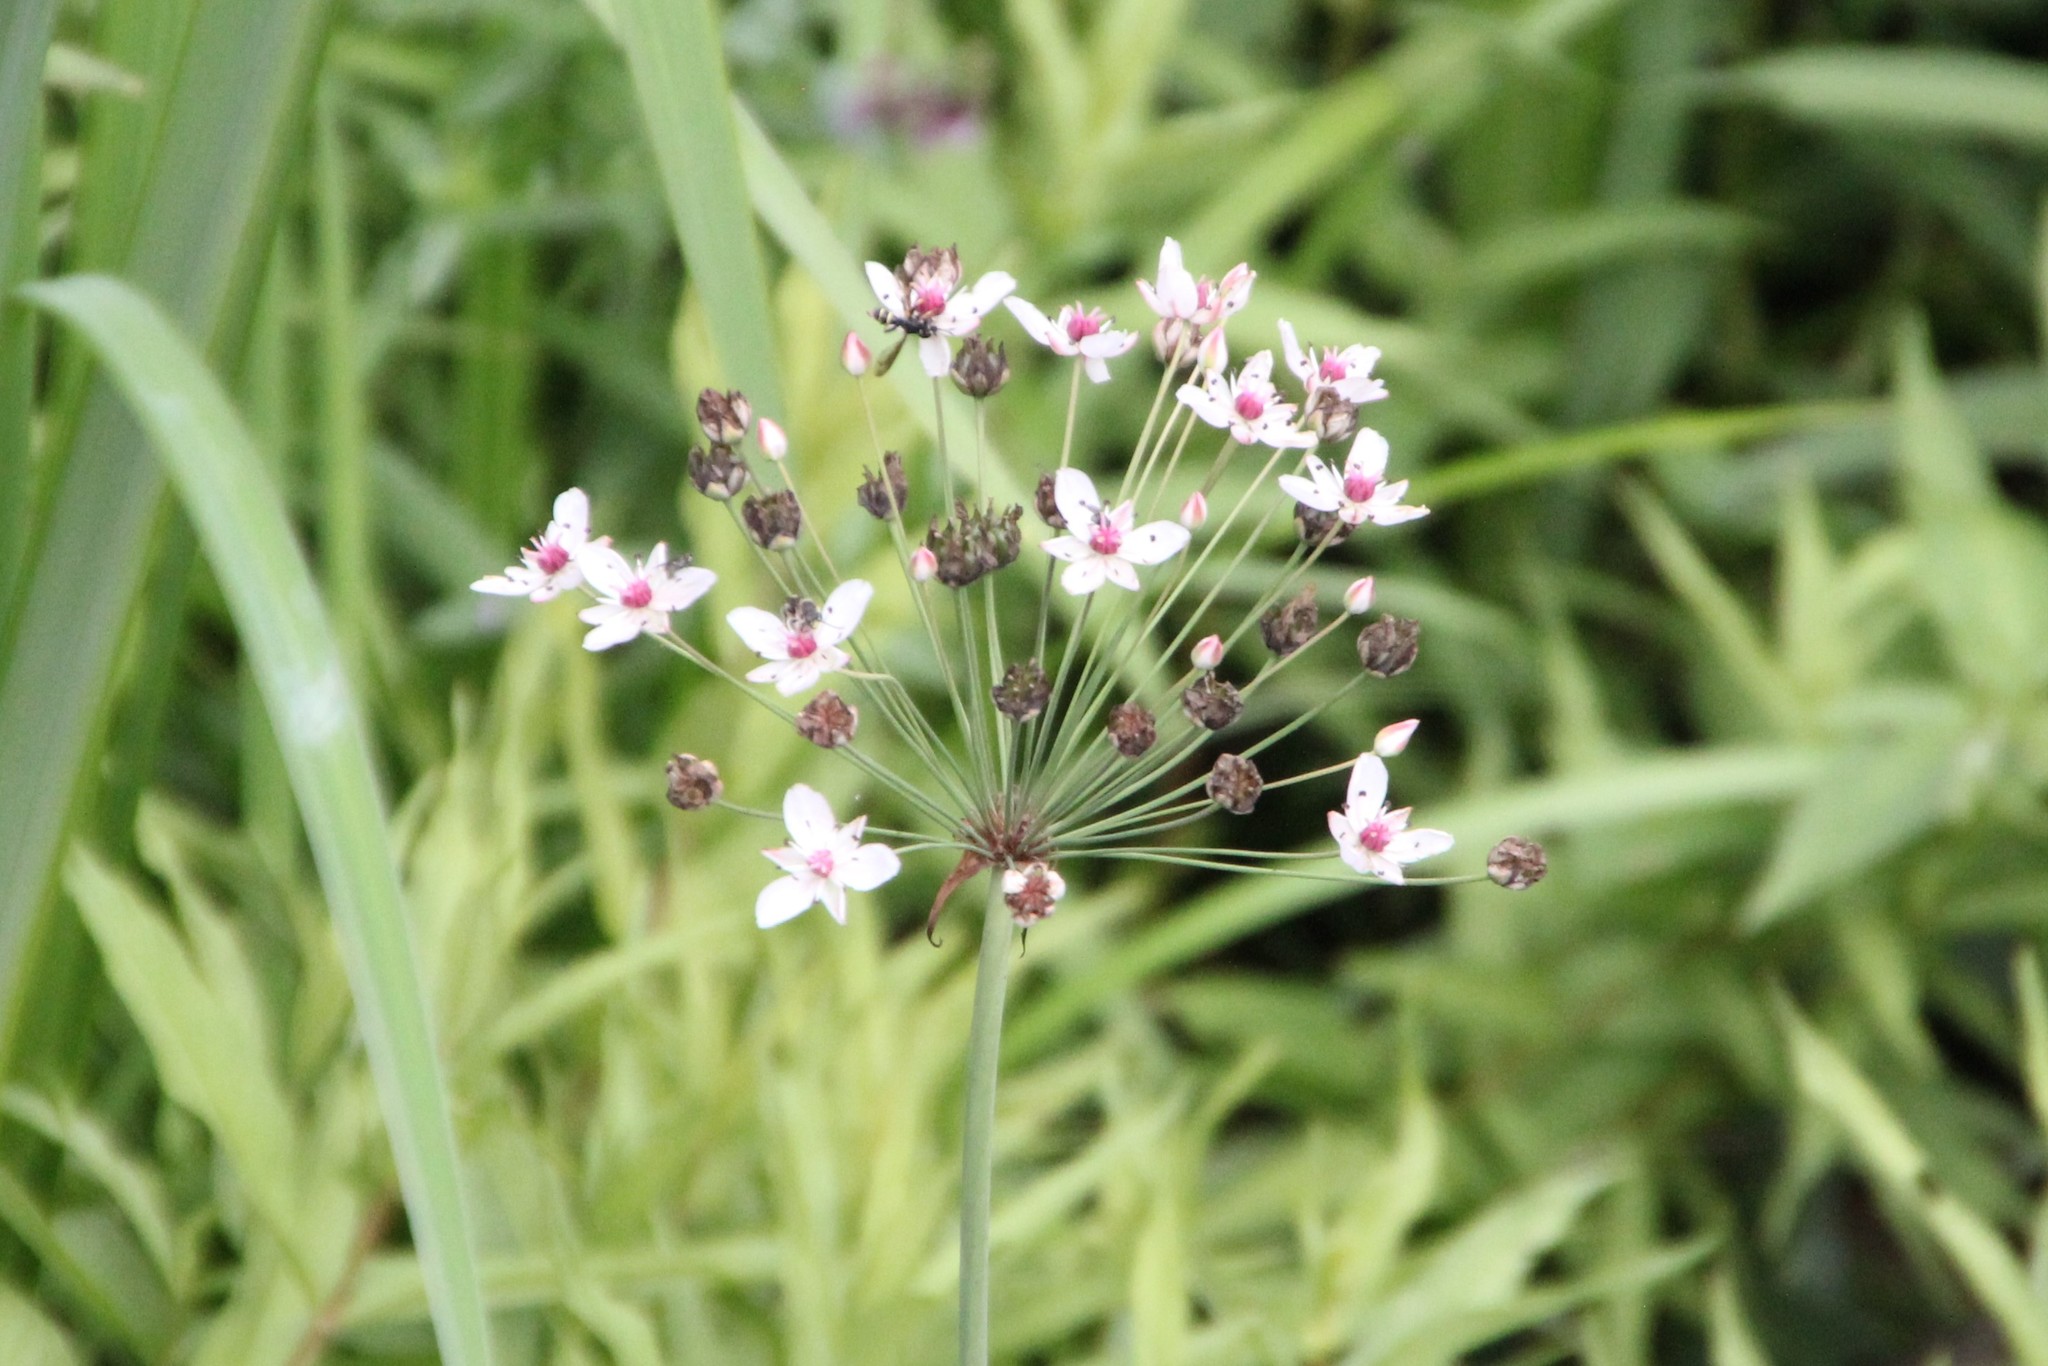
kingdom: Plantae
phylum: Tracheophyta
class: Liliopsida
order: Alismatales
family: Butomaceae
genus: Butomus
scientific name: Butomus umbellatus
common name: Flowering-rush
